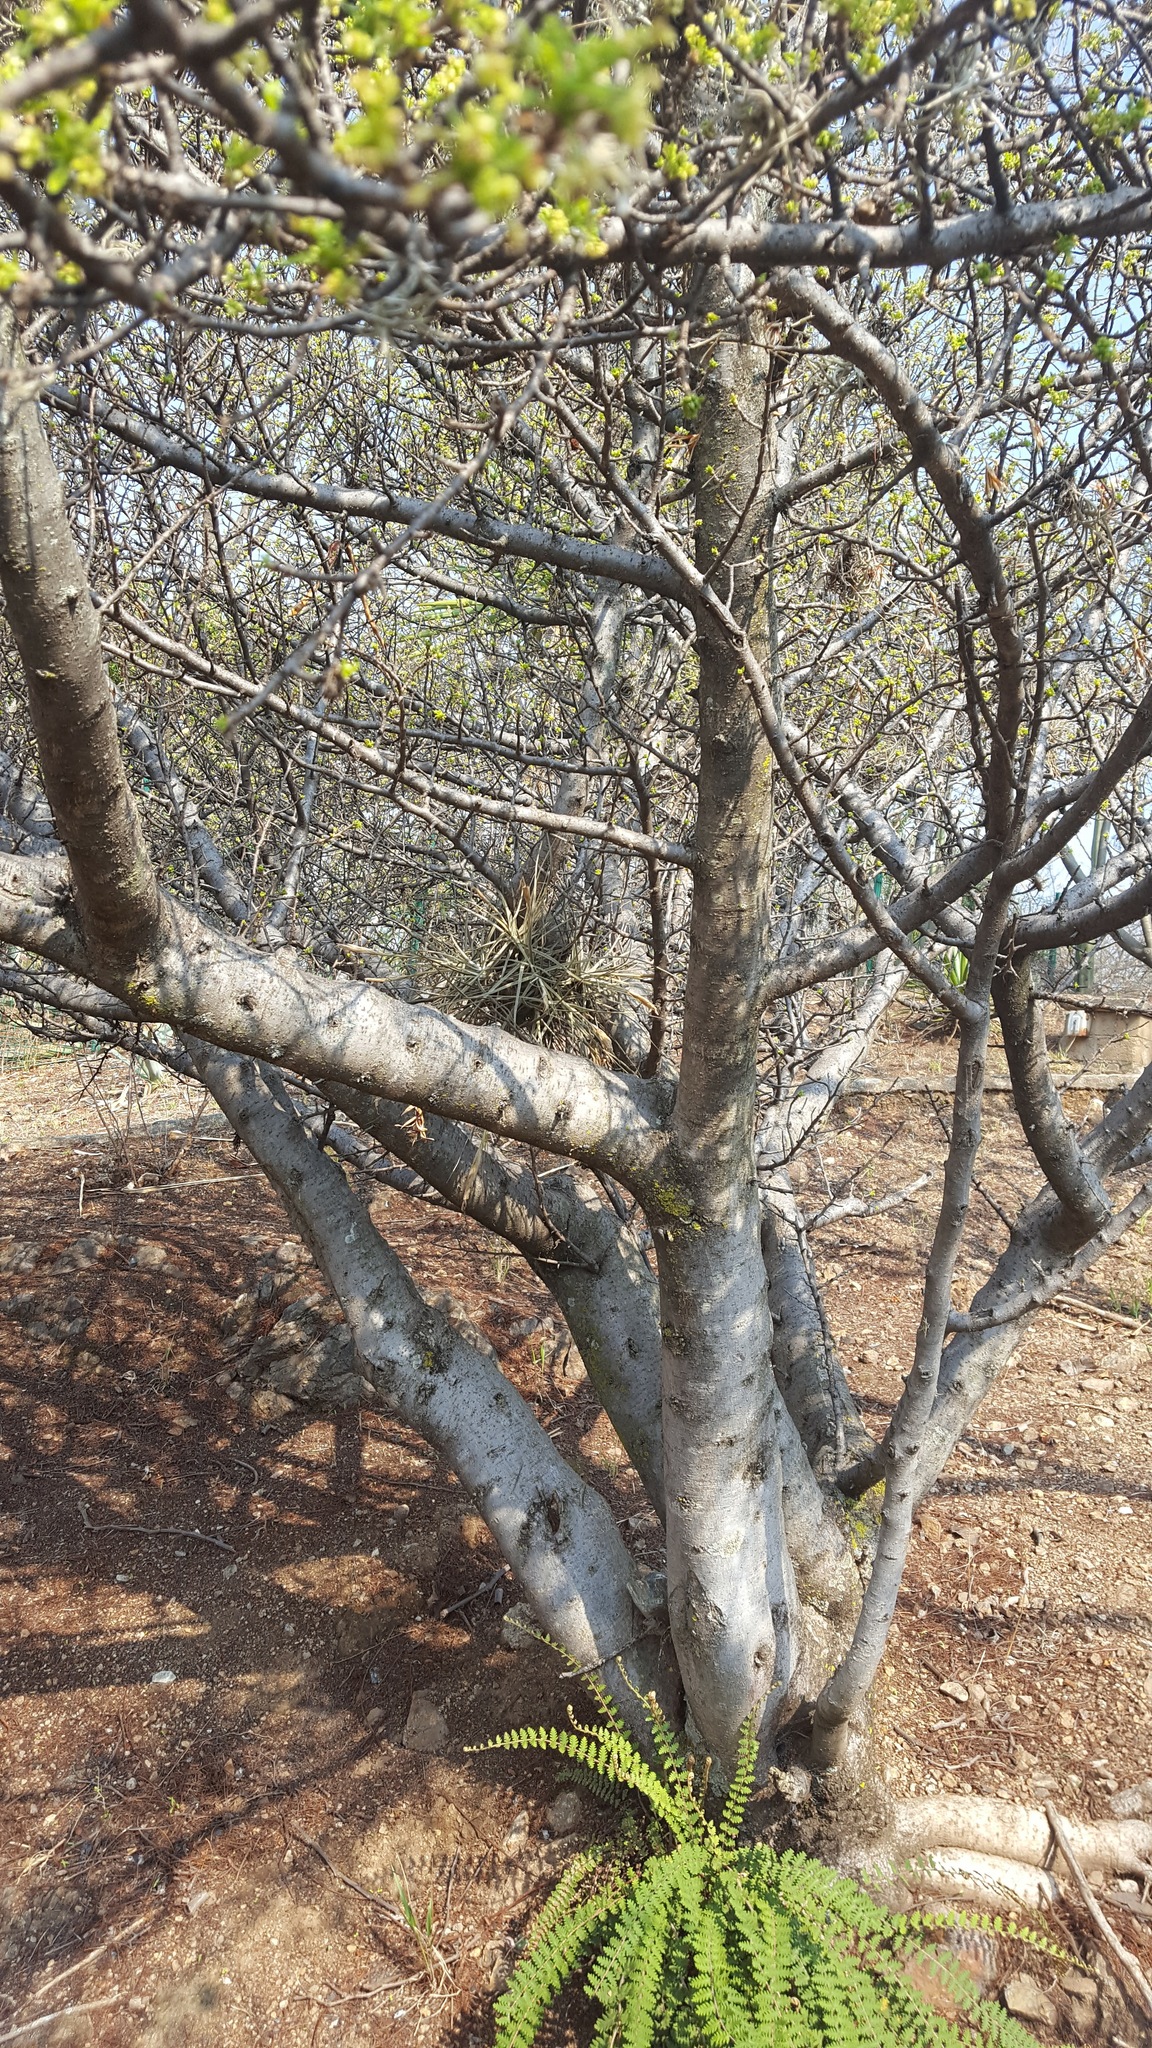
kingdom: Plantae
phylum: Tracheophyta
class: Magnoliopsida
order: Sapindales
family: Burseraceae
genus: Bursera
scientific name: Bursera bipinnata
